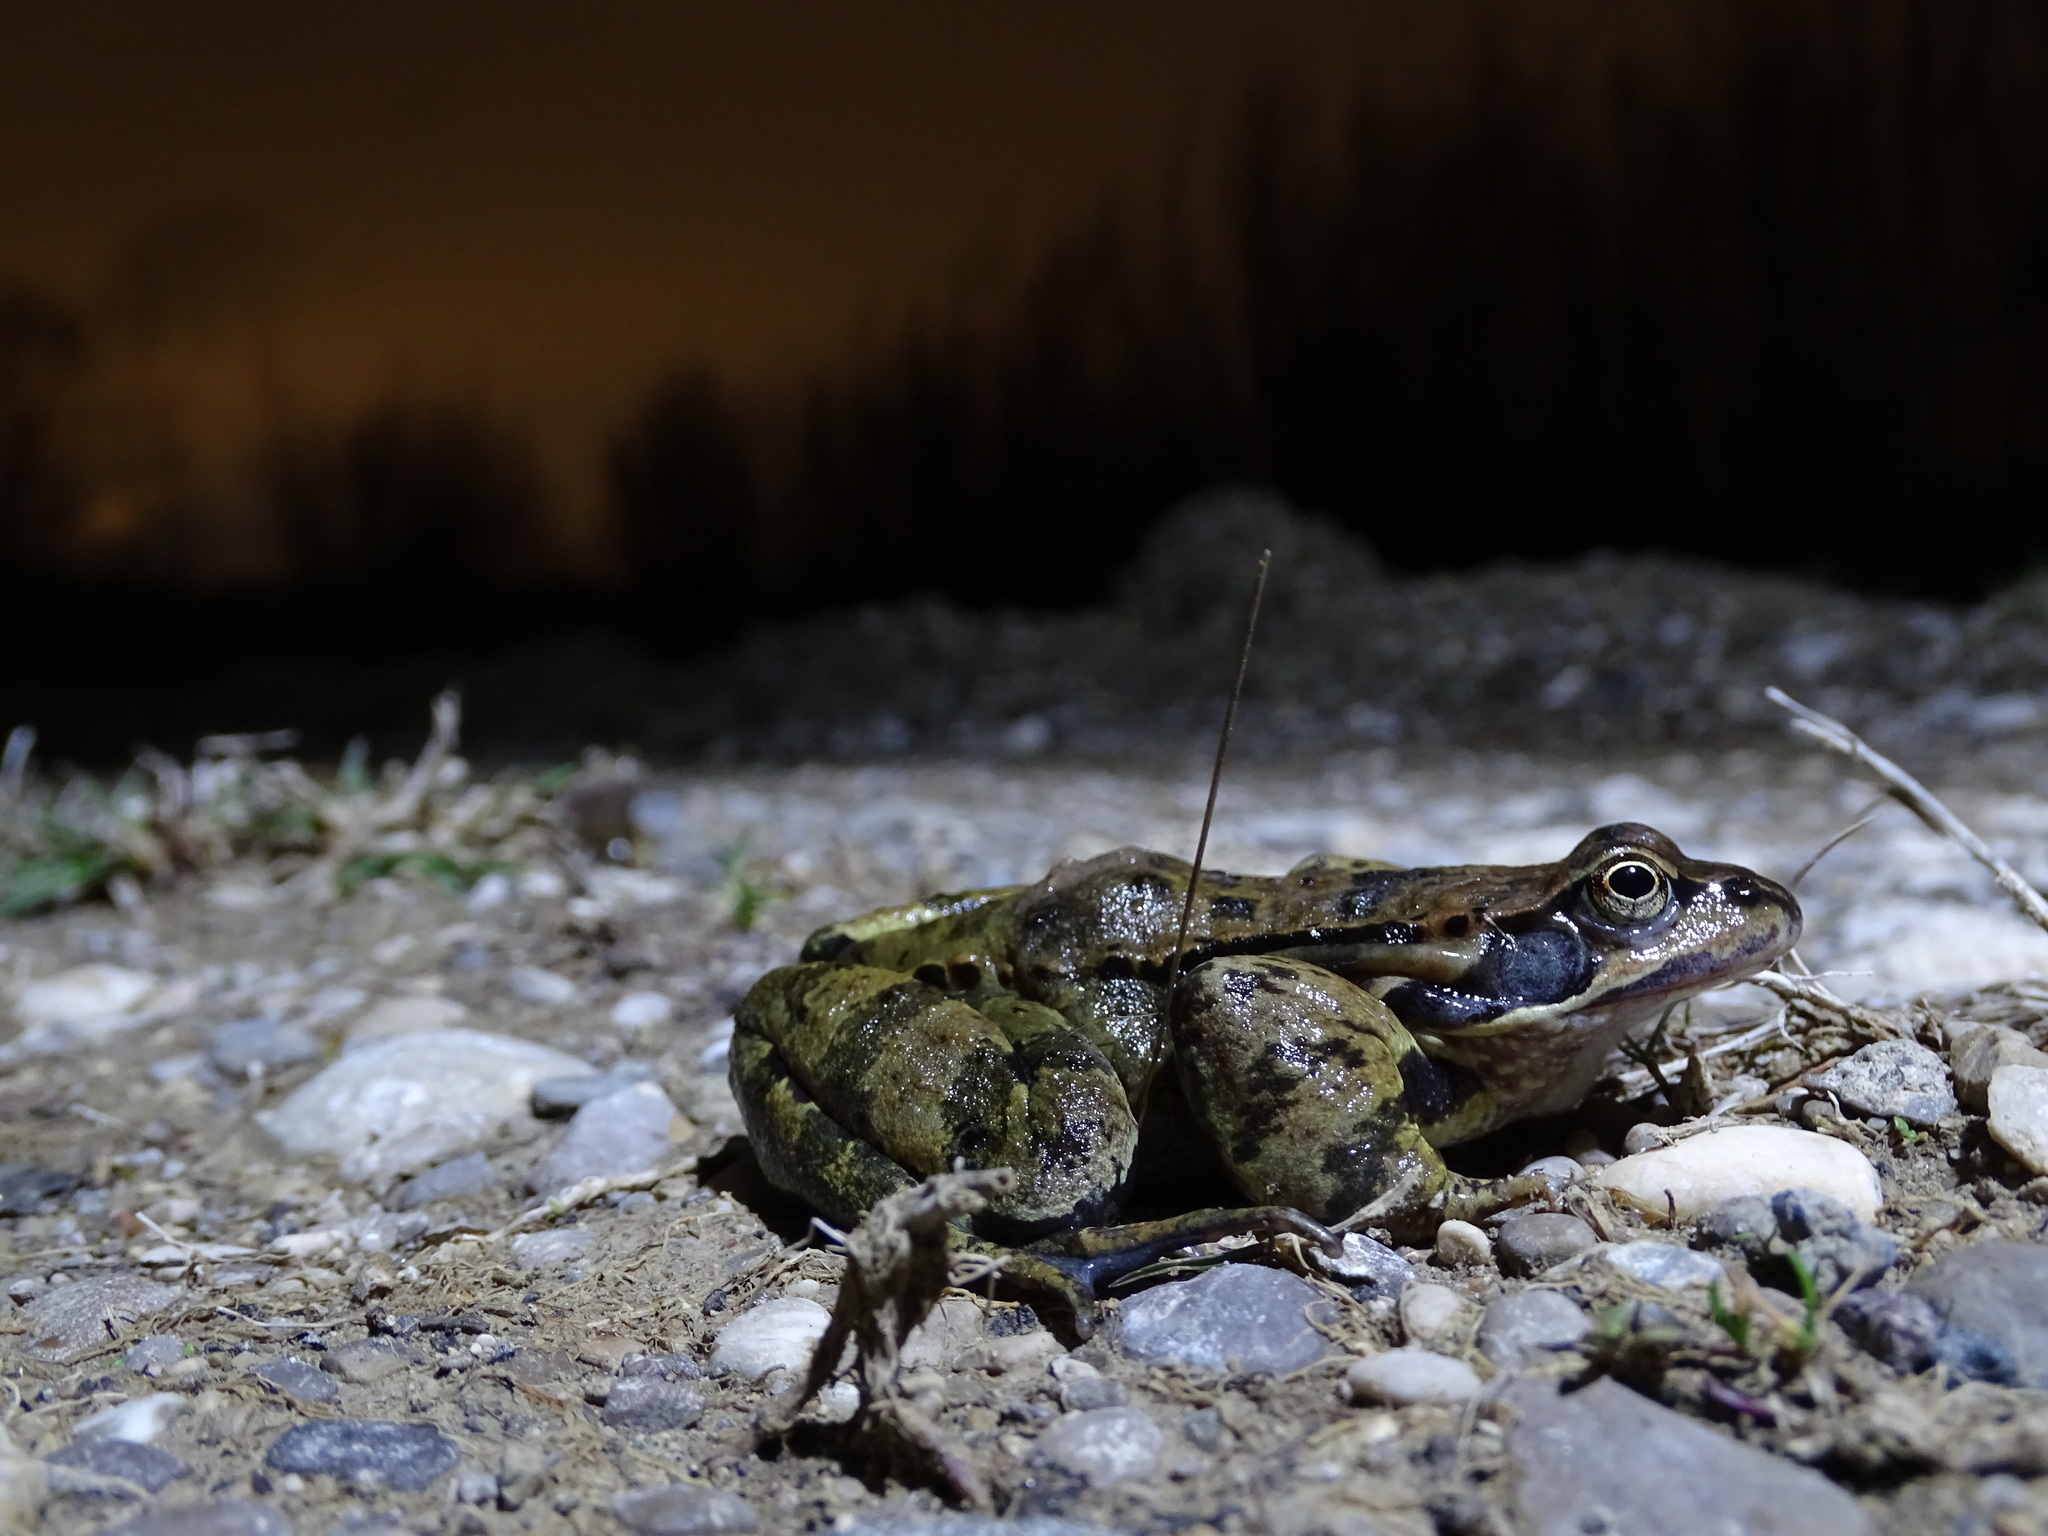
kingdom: Animalia
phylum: Chordata
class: Amphibia
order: Anura
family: Ranidae
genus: Rana
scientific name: Rana temporaria
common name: Common frog
